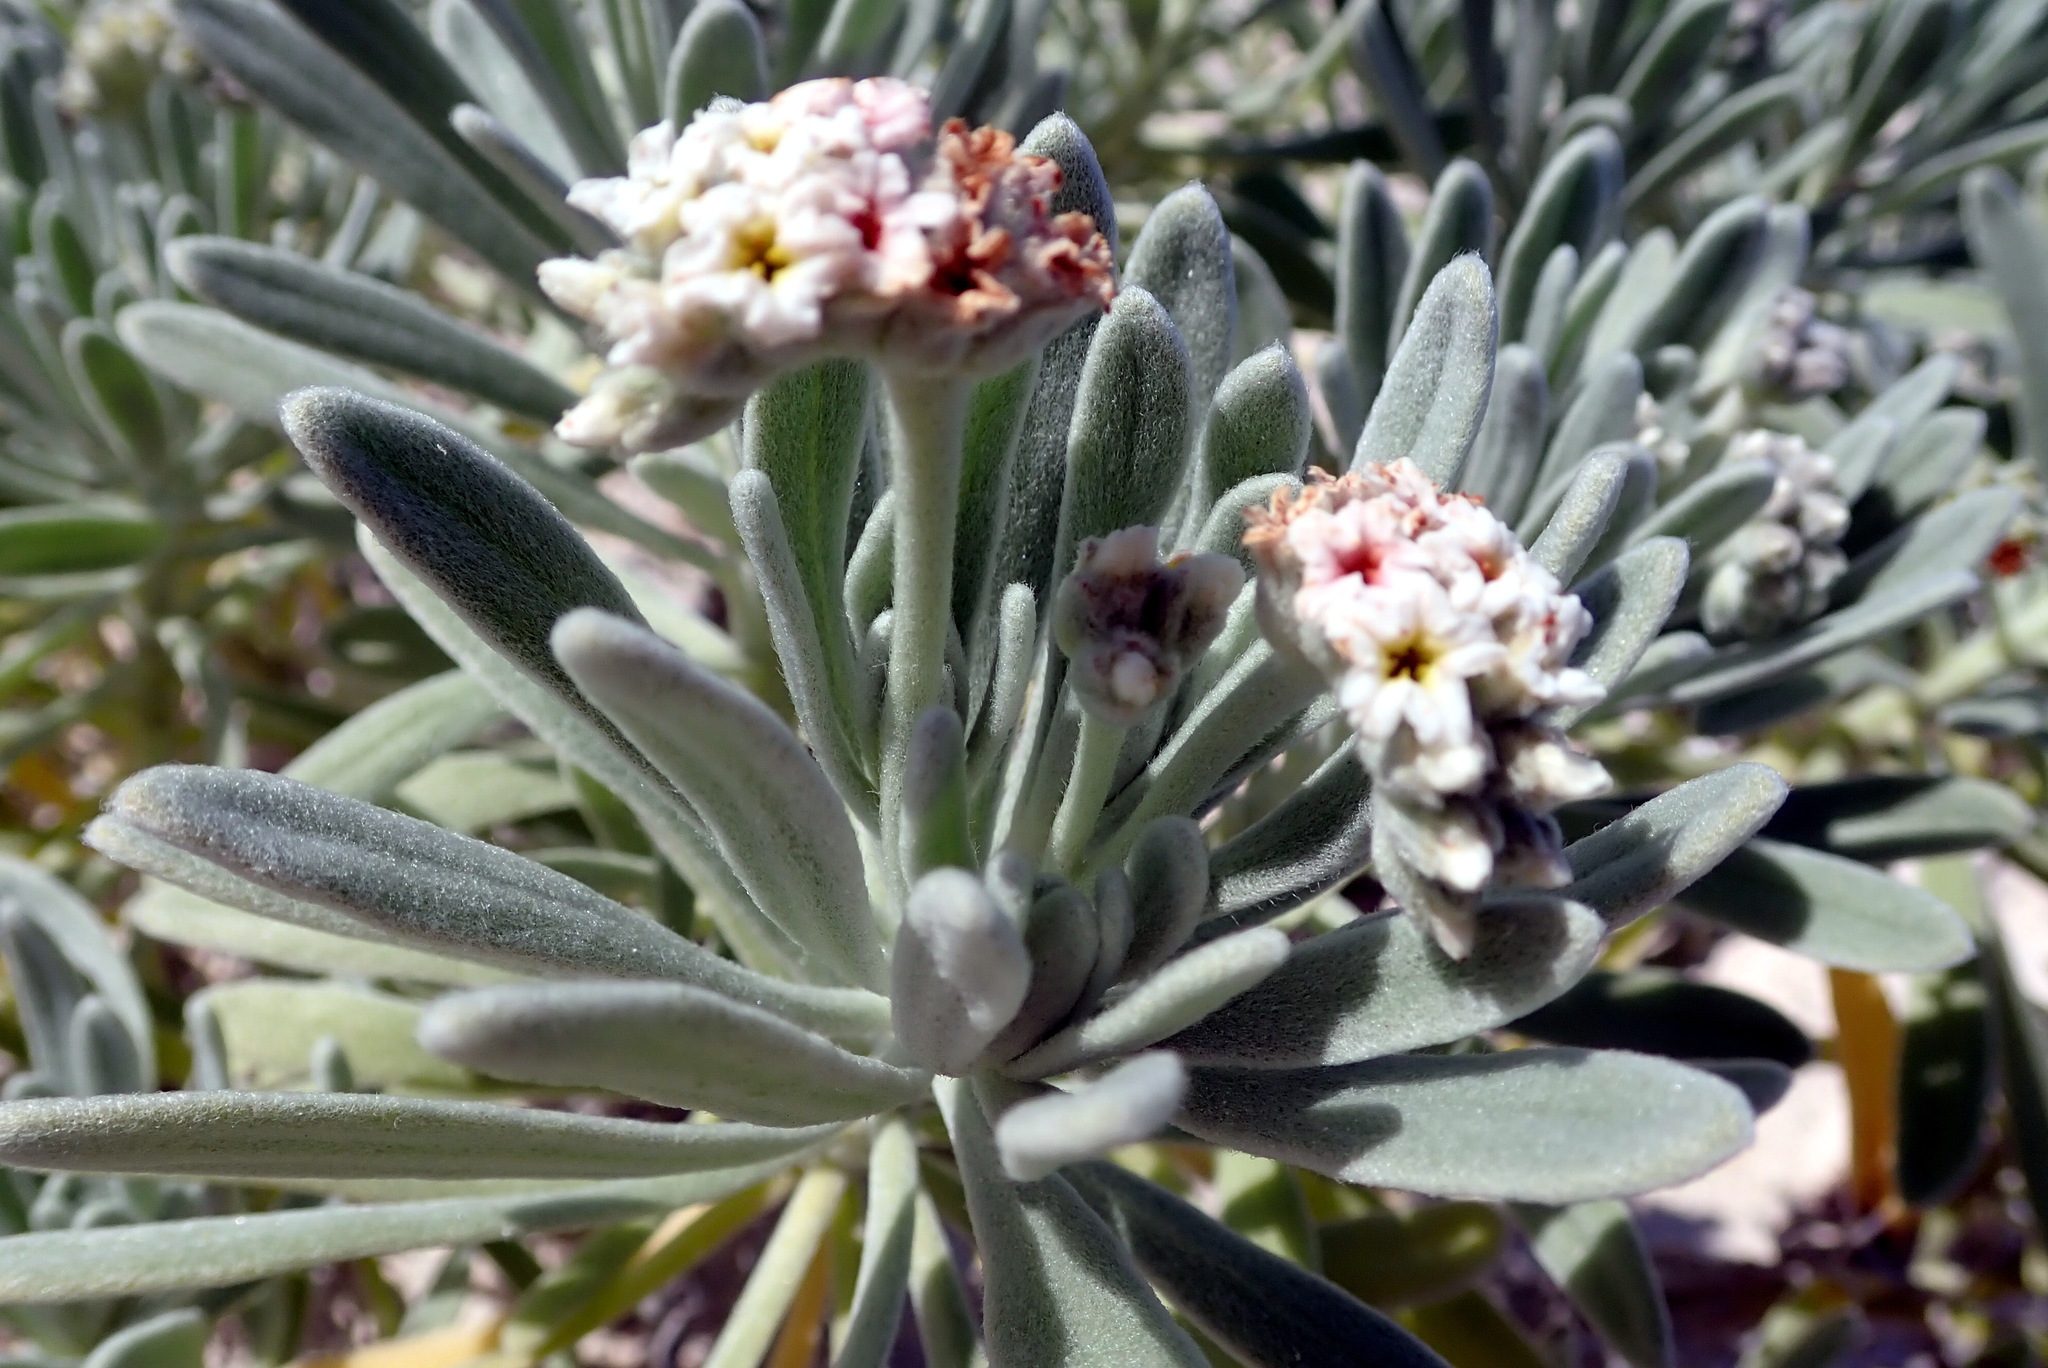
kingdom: Plantae
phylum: Tracheophyta
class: Magnoliopsida
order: Boraginales
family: Heliotropiaceae
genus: Tournefortia
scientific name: Tournefortia gnaphalodes
